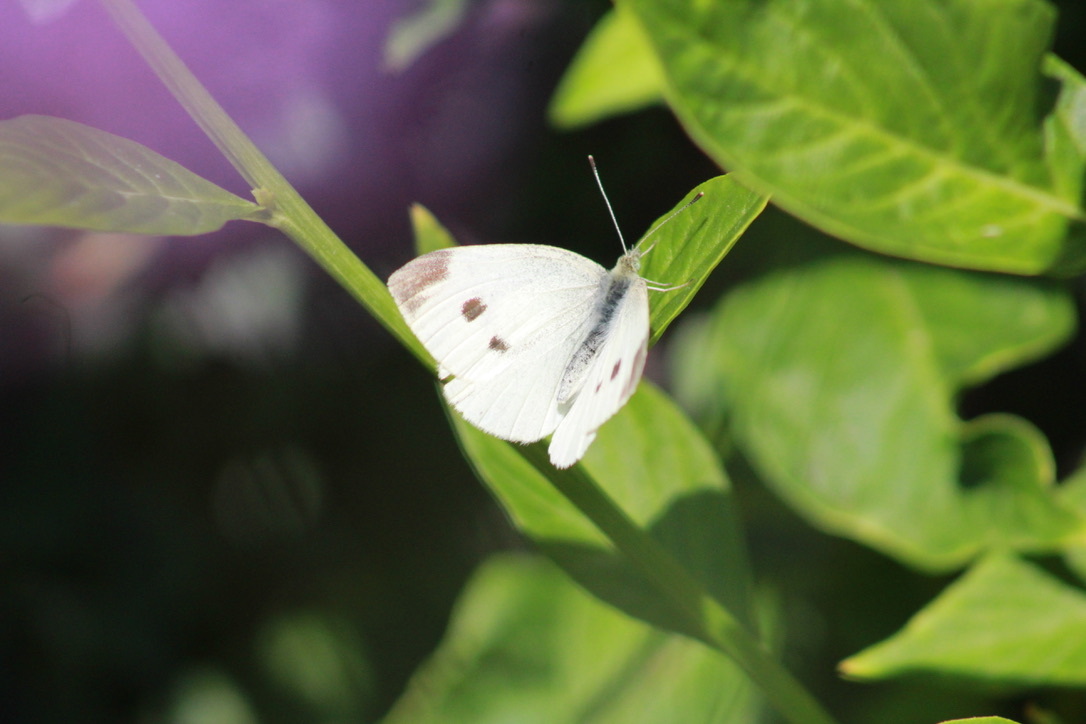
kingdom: Animalia
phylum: Arthropoda
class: Insecta
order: Lepidoptera
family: Pieridae
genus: Pieris
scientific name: Pieris rapae
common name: Small white
